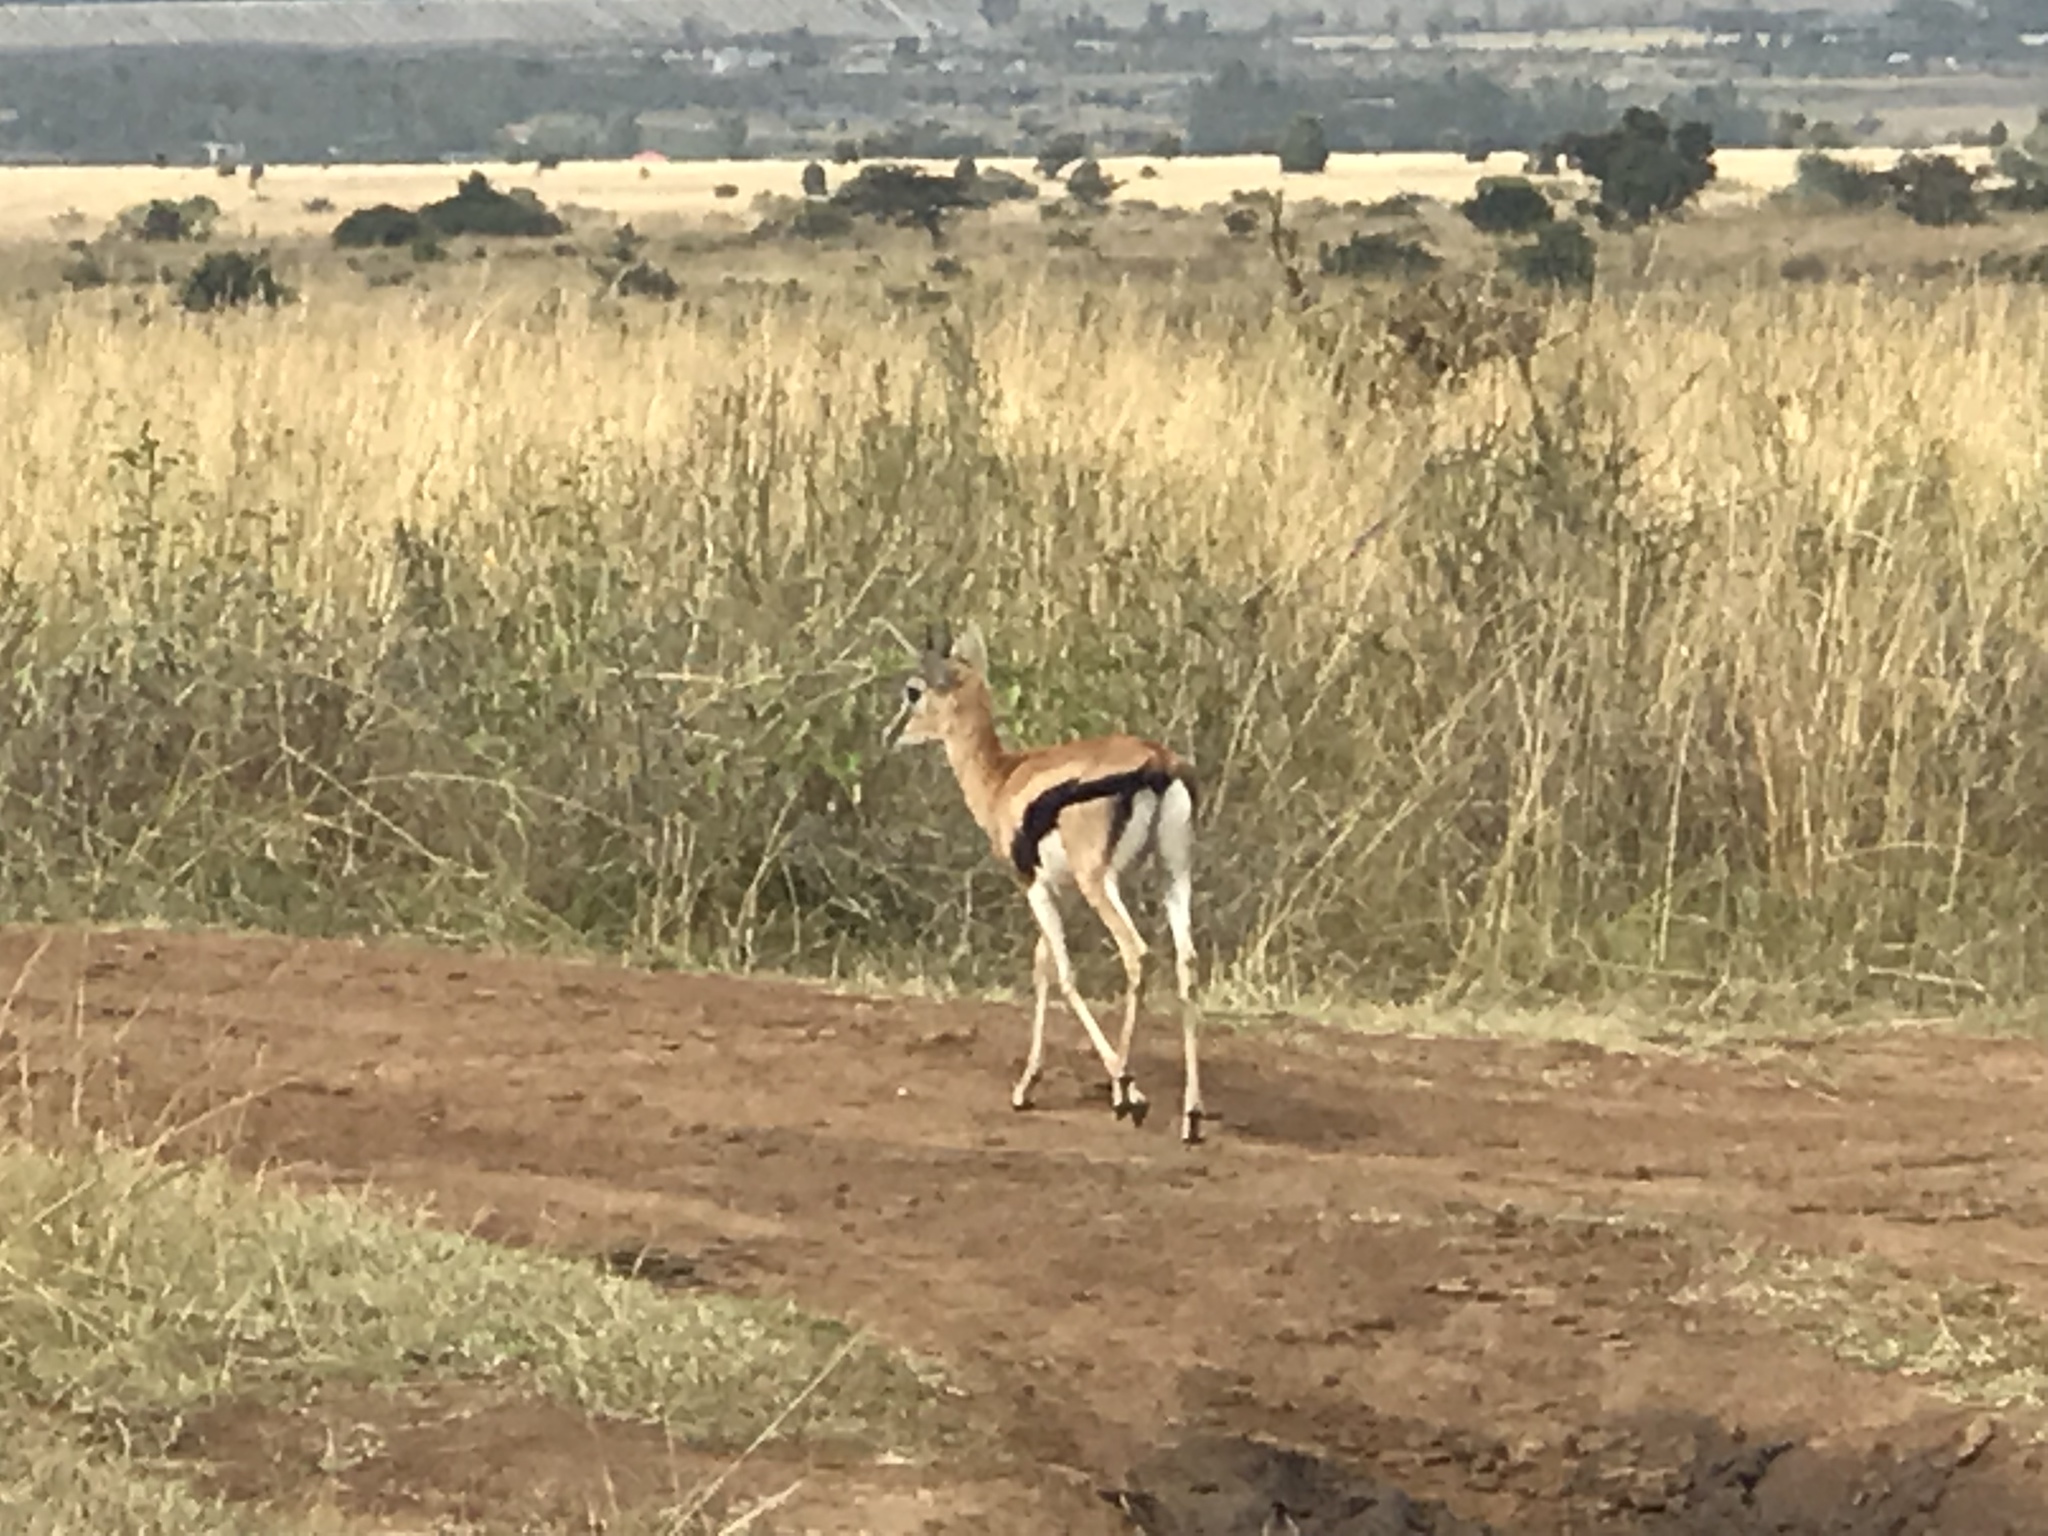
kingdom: Animalia
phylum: Chordata
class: Mammalia
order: Artiodactyla
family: Bovidae
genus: Eudorcas
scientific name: Eudorcas thomsonii
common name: Thomson's gazelle
